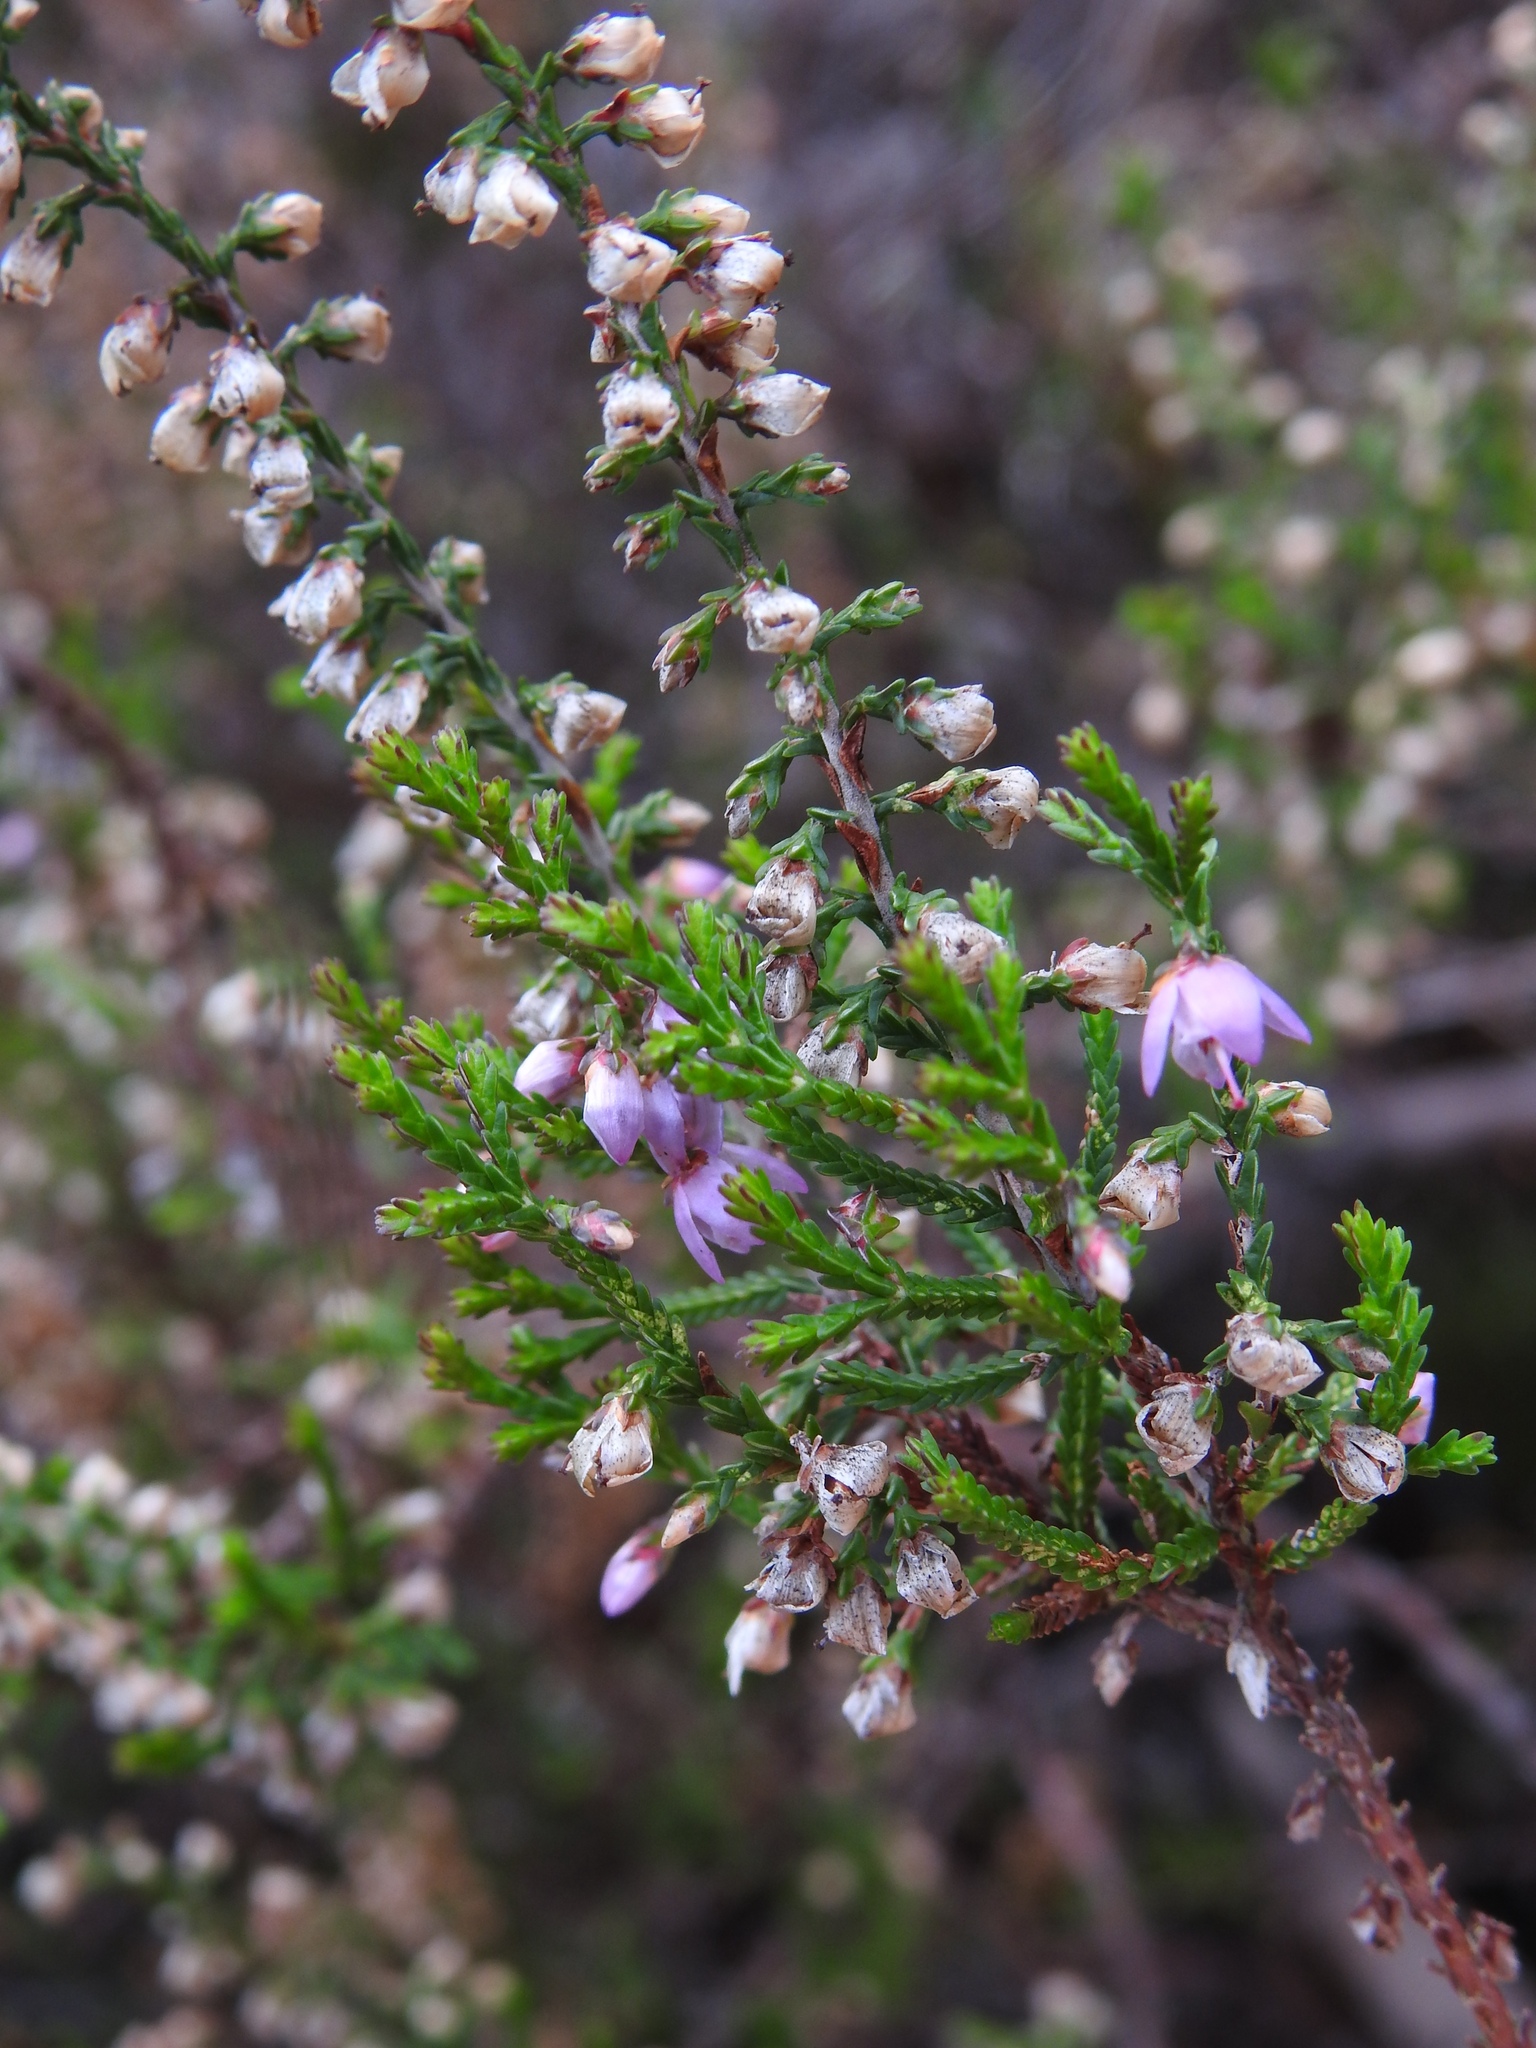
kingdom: Plantae
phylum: Tracheophyta
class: Magnoliopsida
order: Ericales
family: Ericaceae
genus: Calluna
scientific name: Calluna vulgaris
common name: Heather
